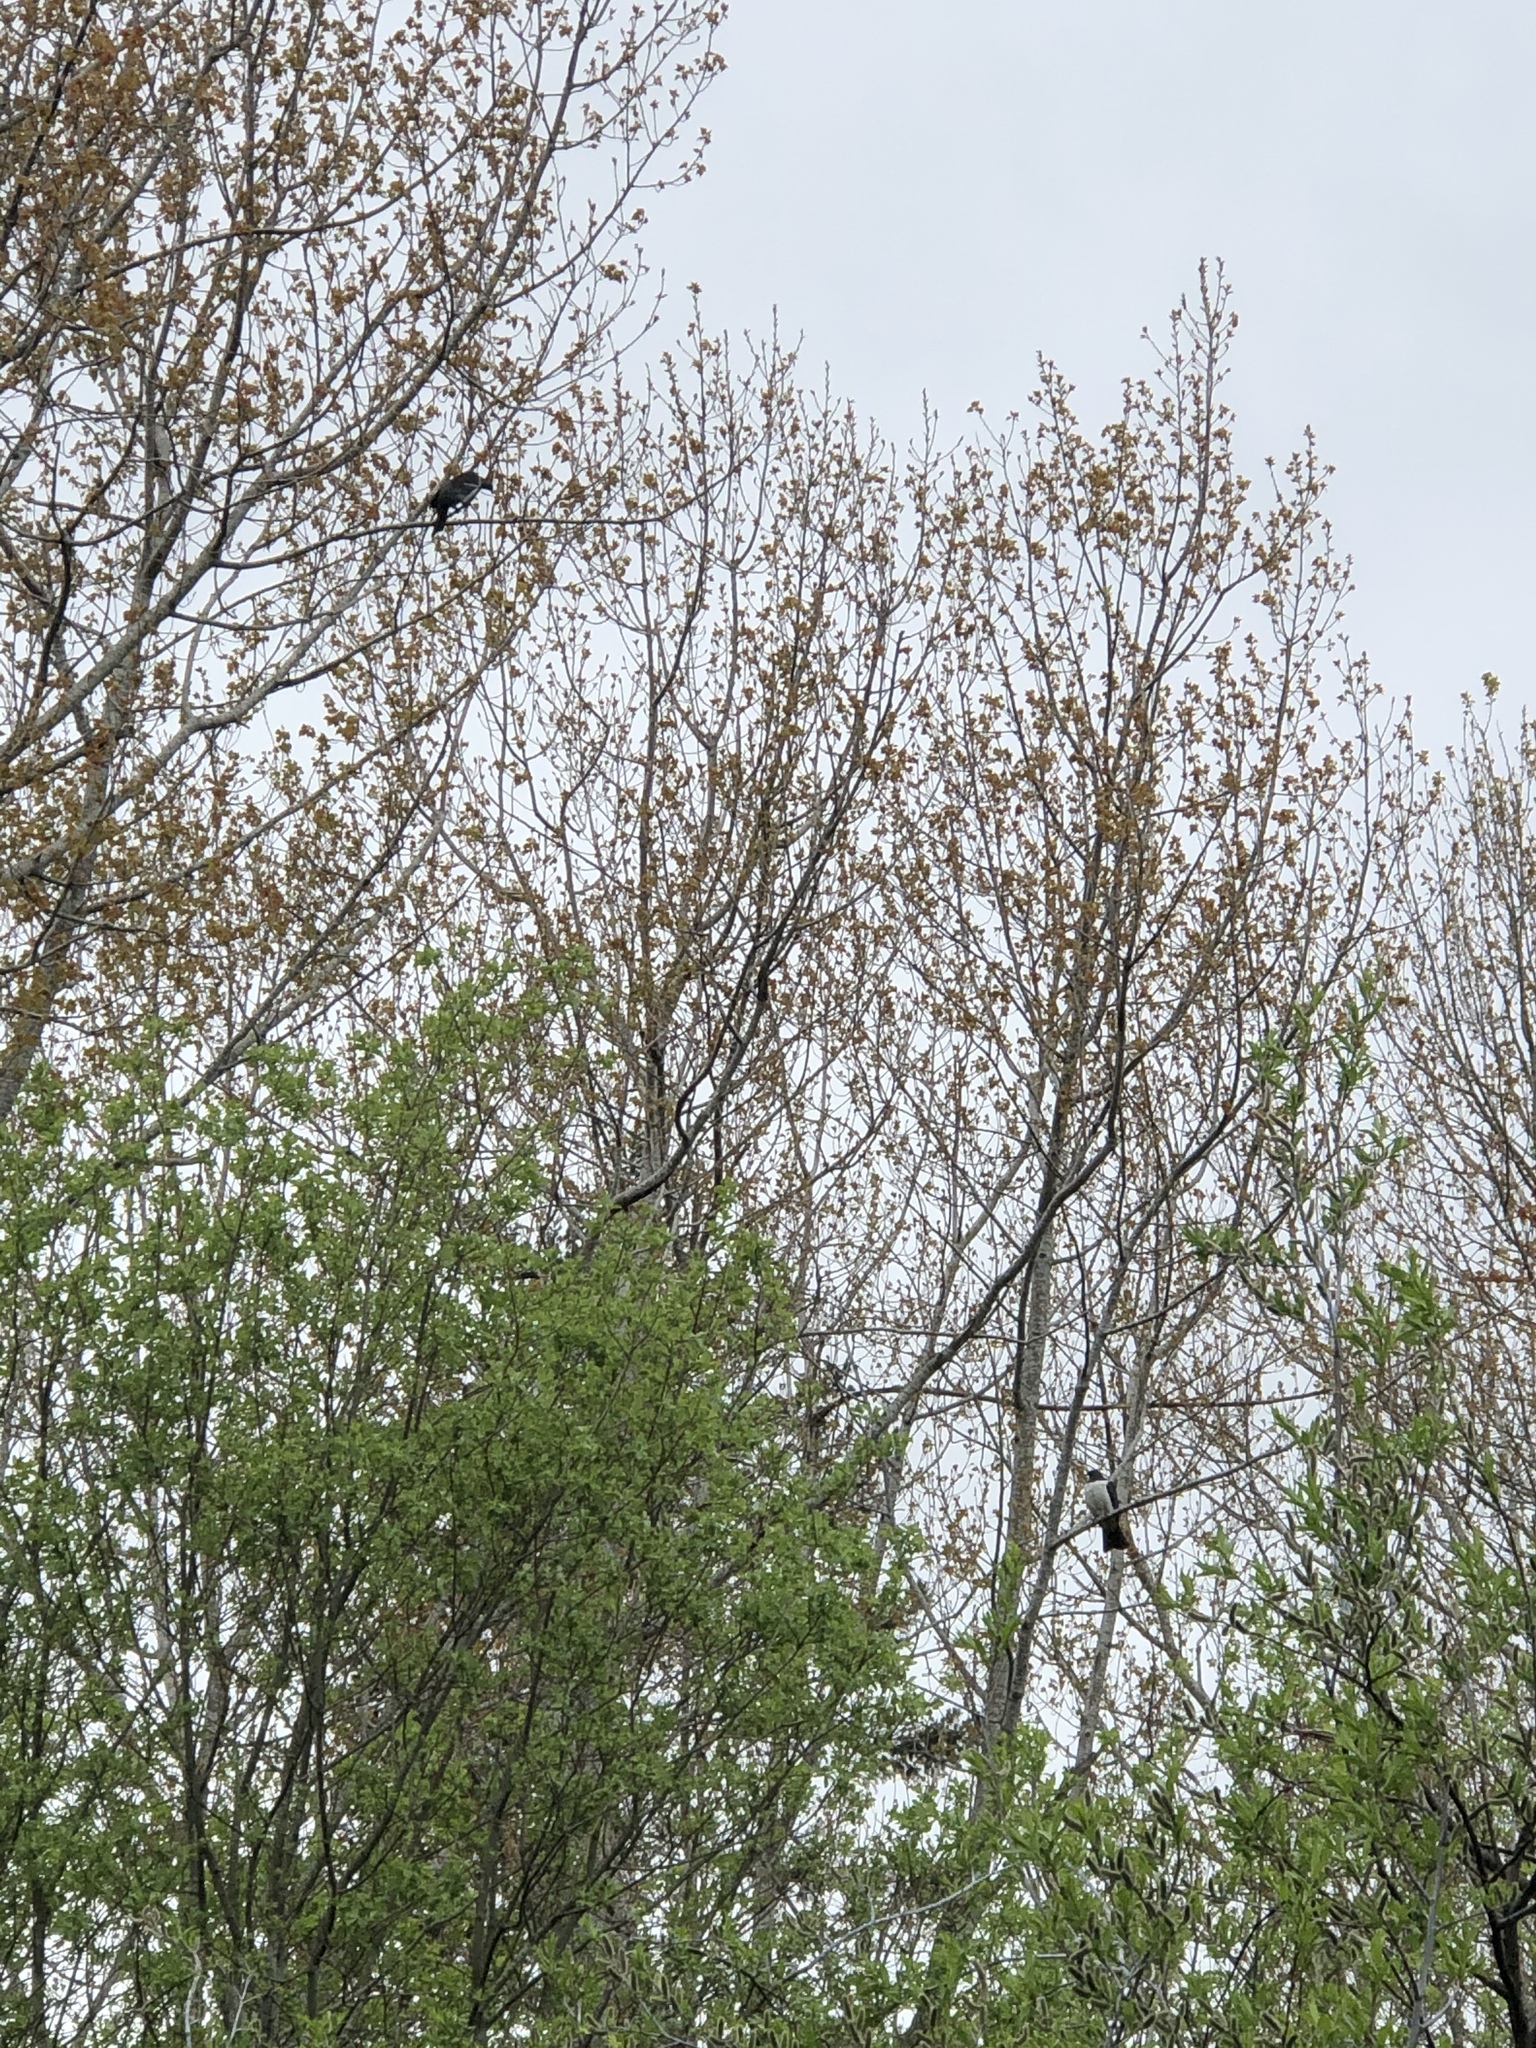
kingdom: Animalia
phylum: Chordata
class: Aves
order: Columbiformes
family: Columbidae
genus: Hemiphaga
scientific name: Hemiphaga novaeseelandiae
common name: New zealand pigeon
